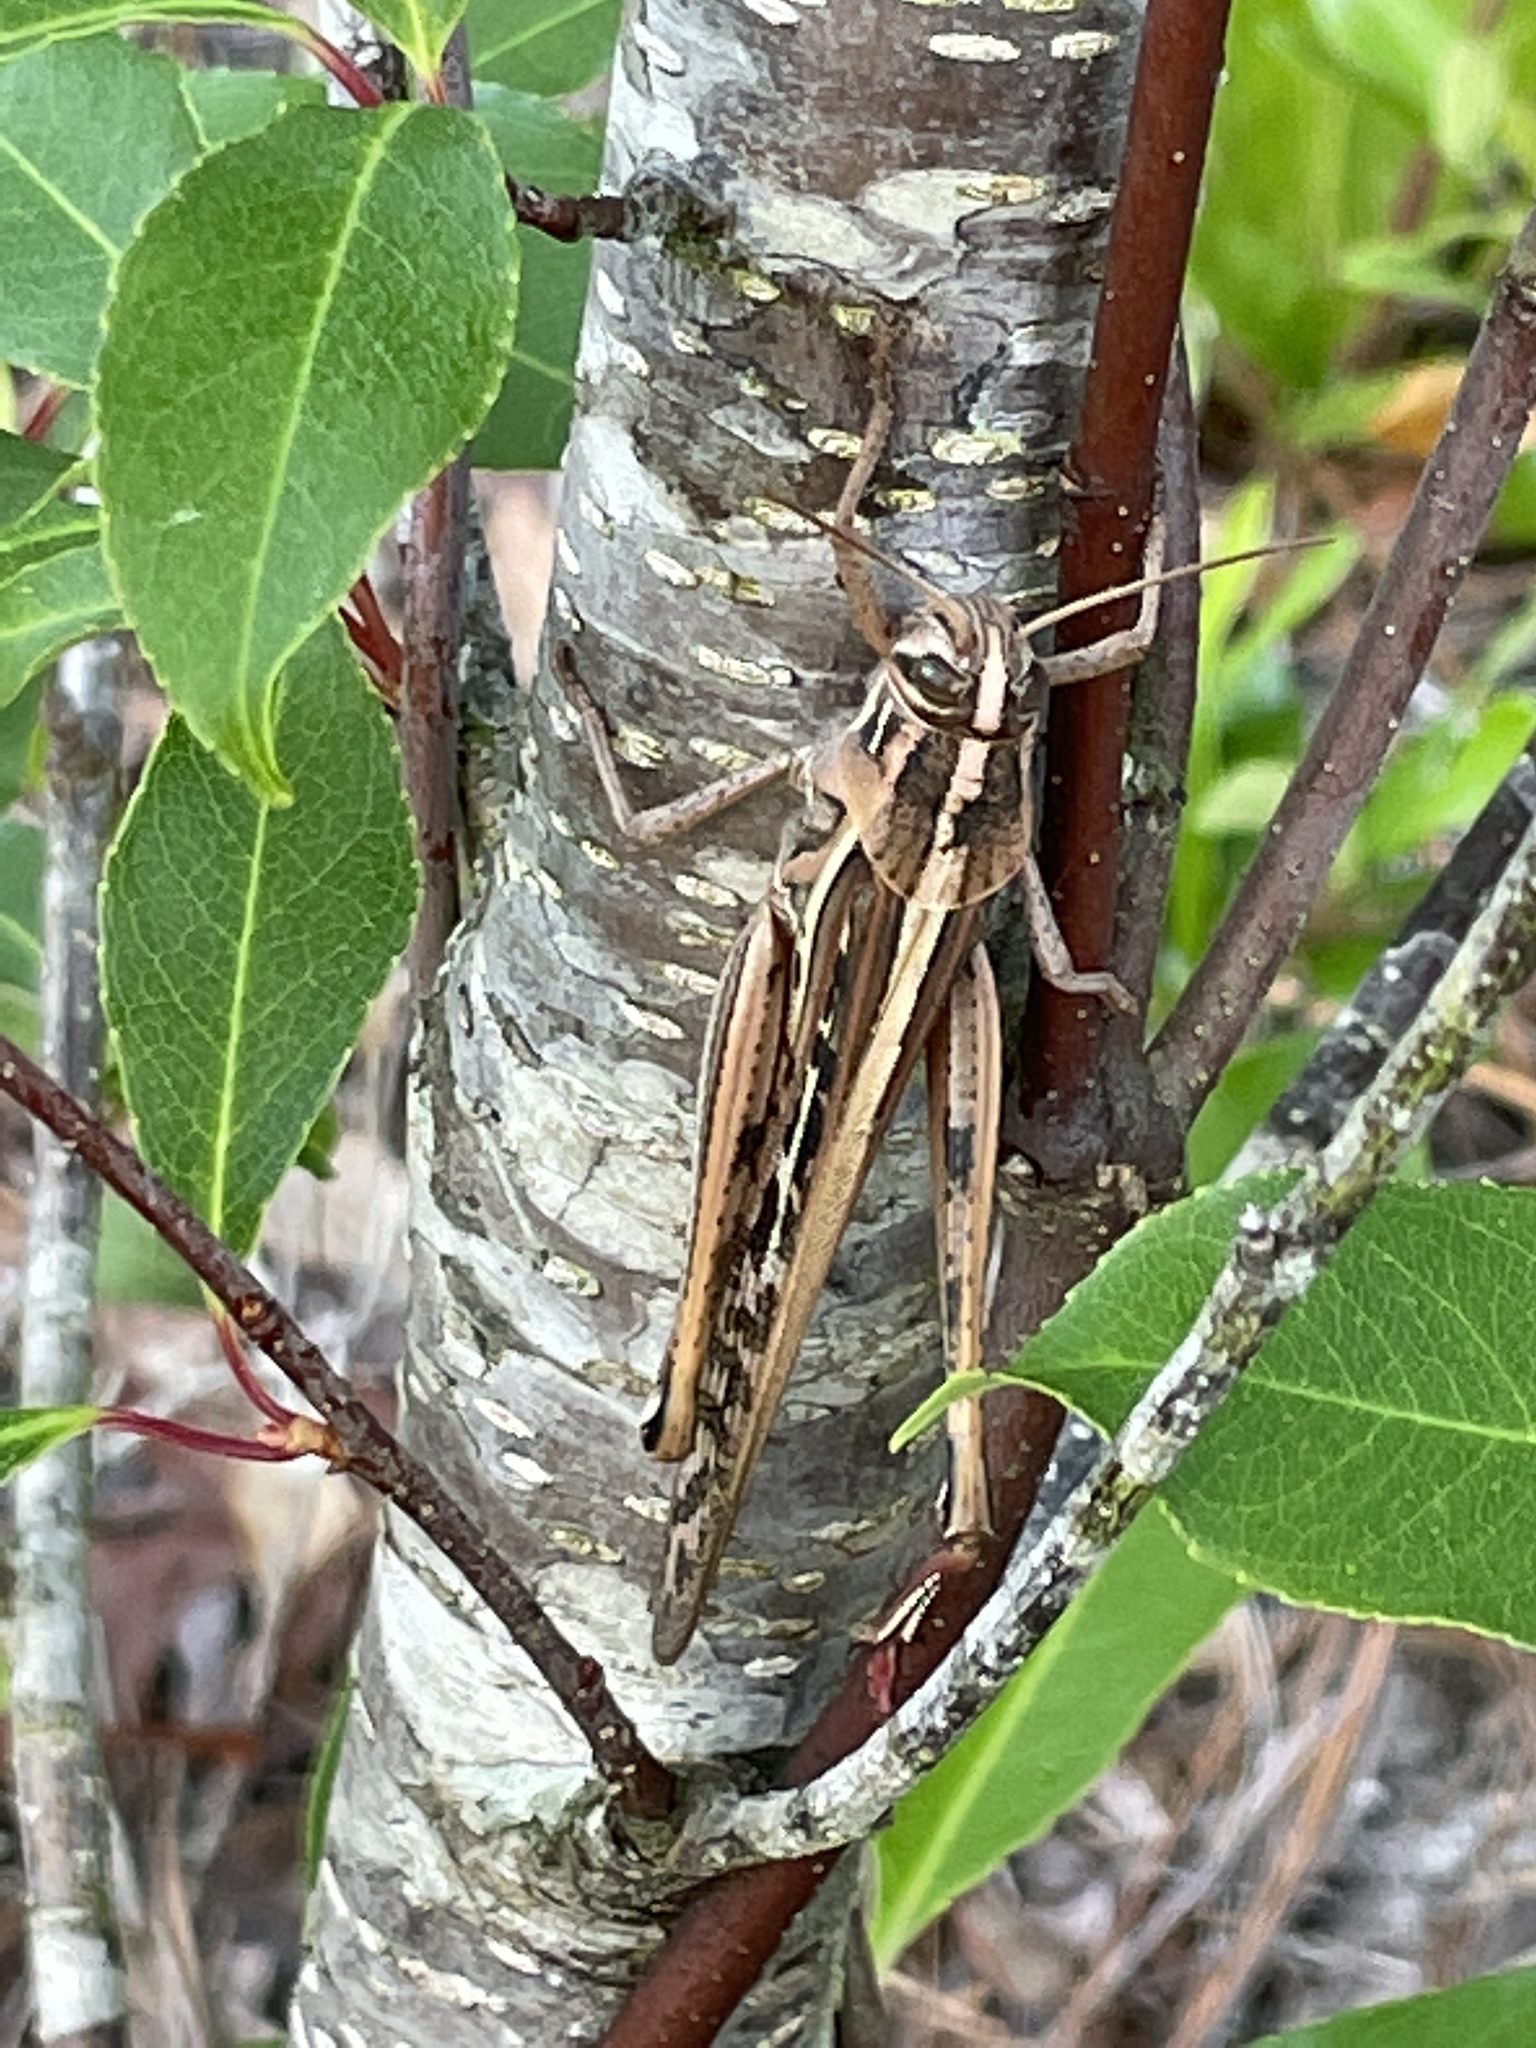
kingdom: Animalia
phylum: Arthropoda
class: Insecta
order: Orthoptera
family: Acrididae
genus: Schistocerca
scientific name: Schistocerca americana
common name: American bird locust
